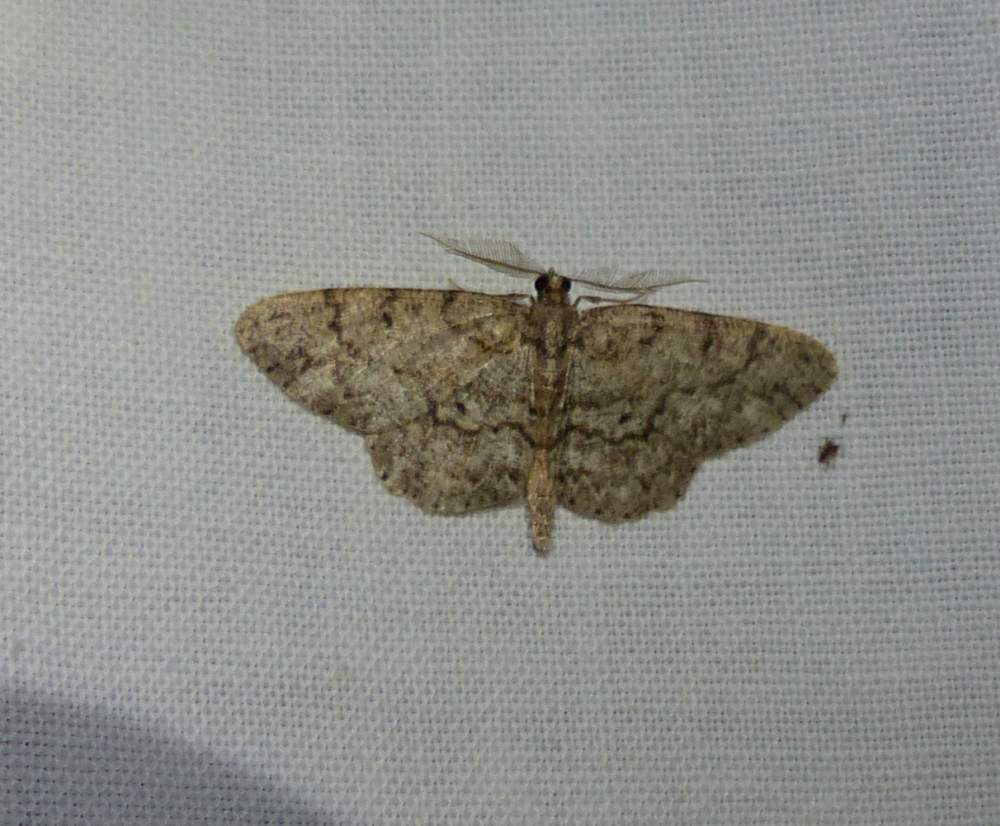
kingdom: Animalia
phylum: Arthropoda
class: Insecta
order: Lepidoptera
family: Geometridae
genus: Protoboarmia
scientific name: Protoboarmia porcelaria
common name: Porcelain gray
